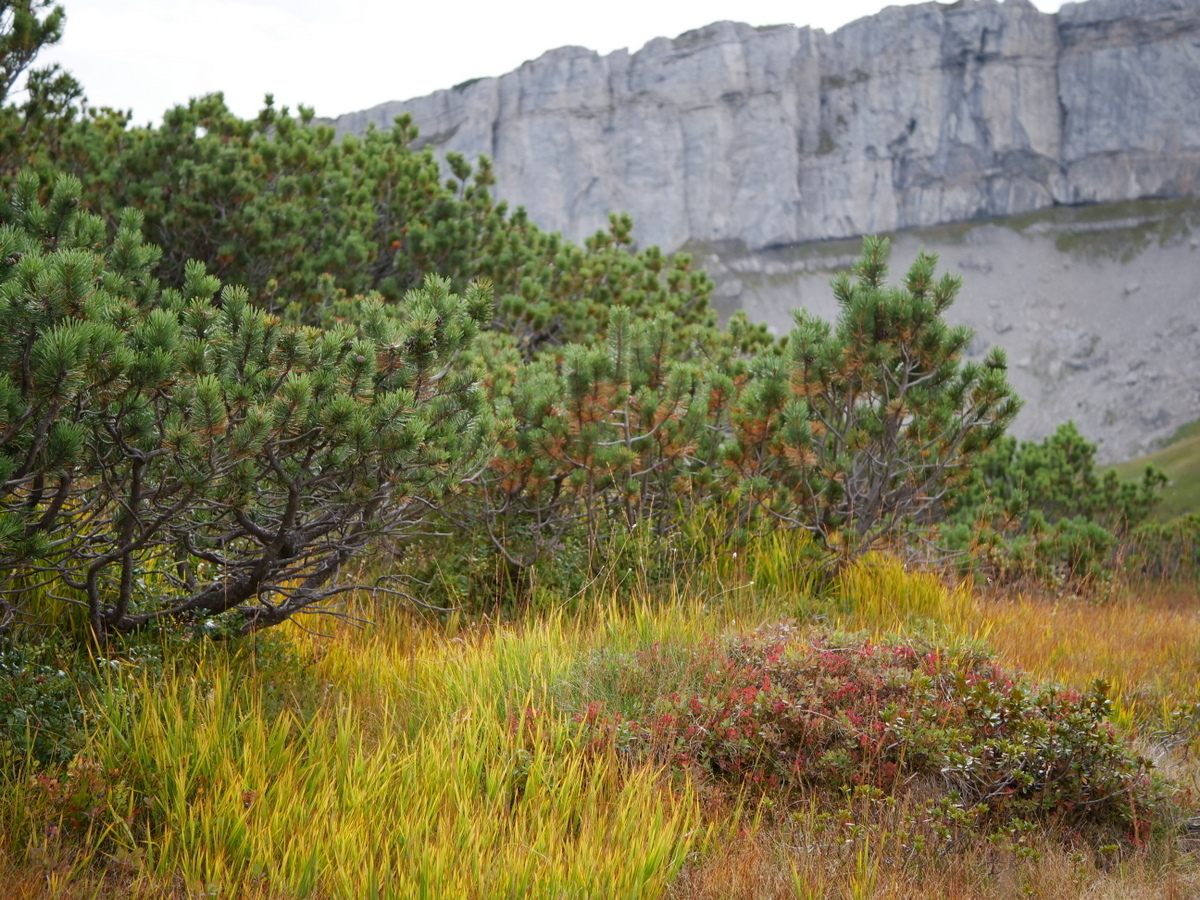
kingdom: Plantae
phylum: Tracheophyta
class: Pinopsida
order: Pinales
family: Pinaceae
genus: Pinus
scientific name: Pinus mugo
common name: Mugo pine
